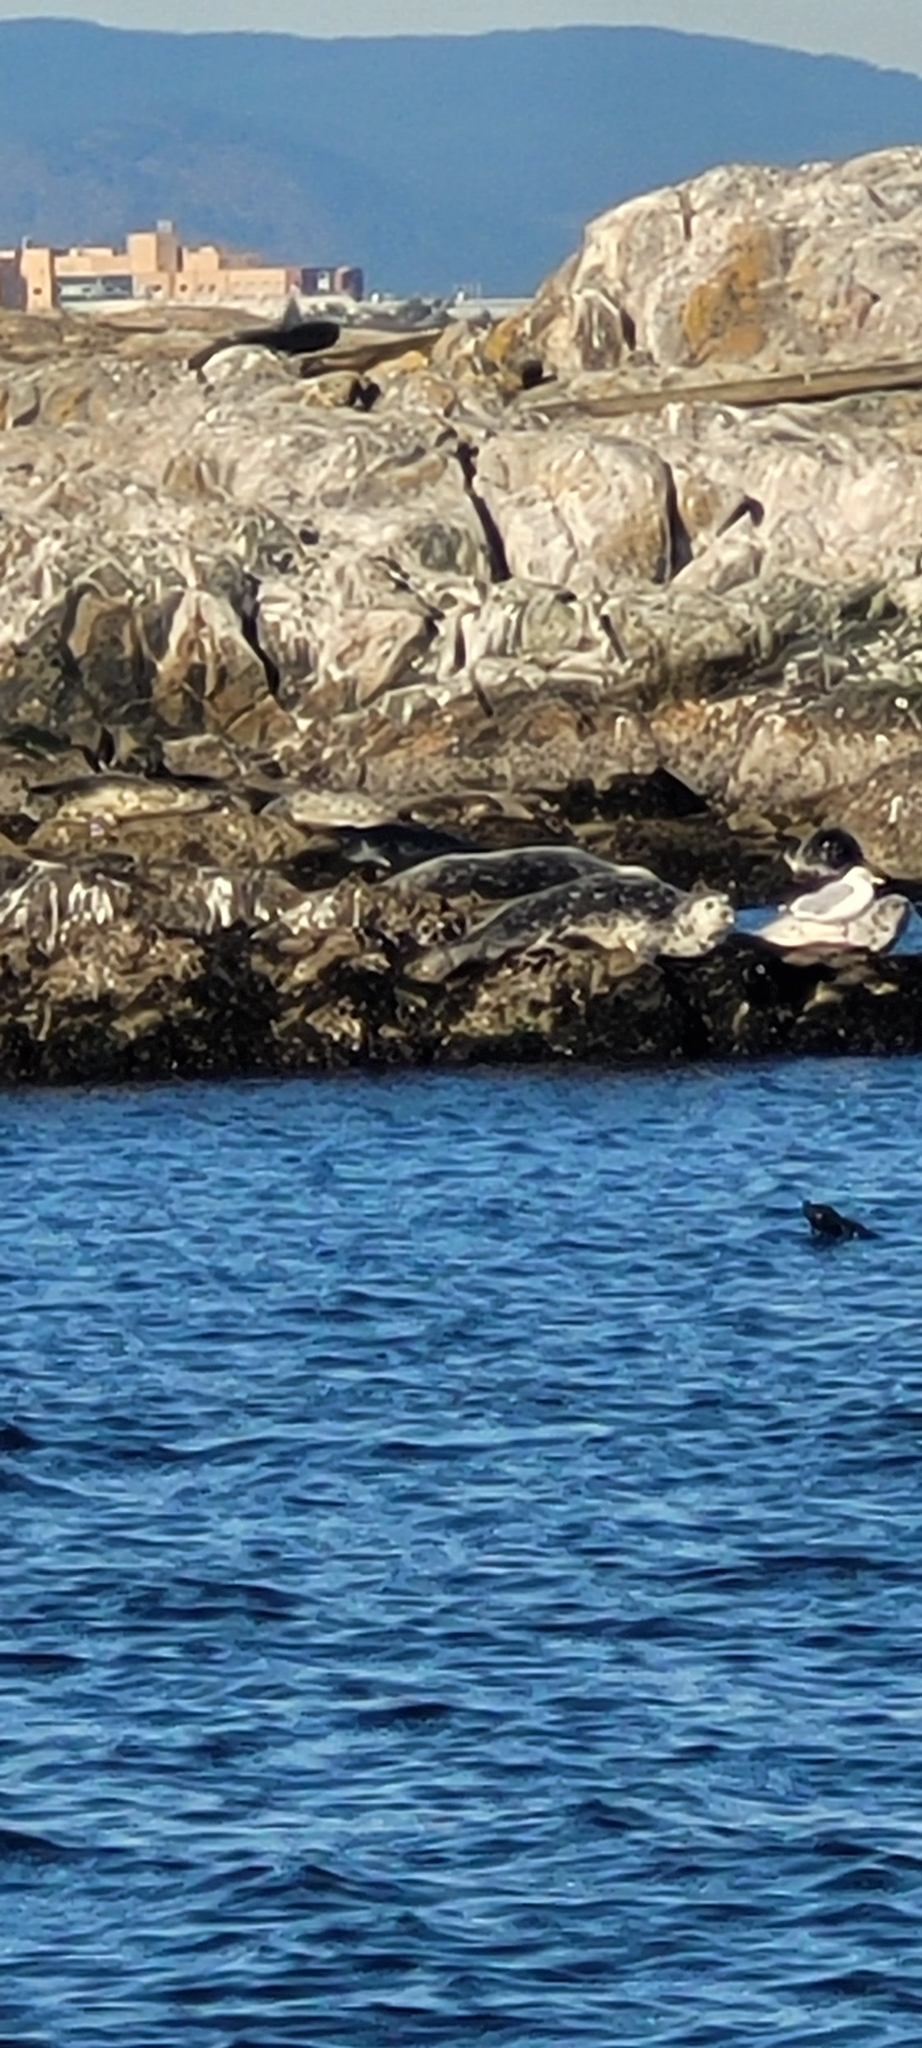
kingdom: Animalia
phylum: Chordata
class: Mammalia
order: Carnivora
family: Phocidae
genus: Phoca
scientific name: Phoca vitulina
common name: Harbor seal
